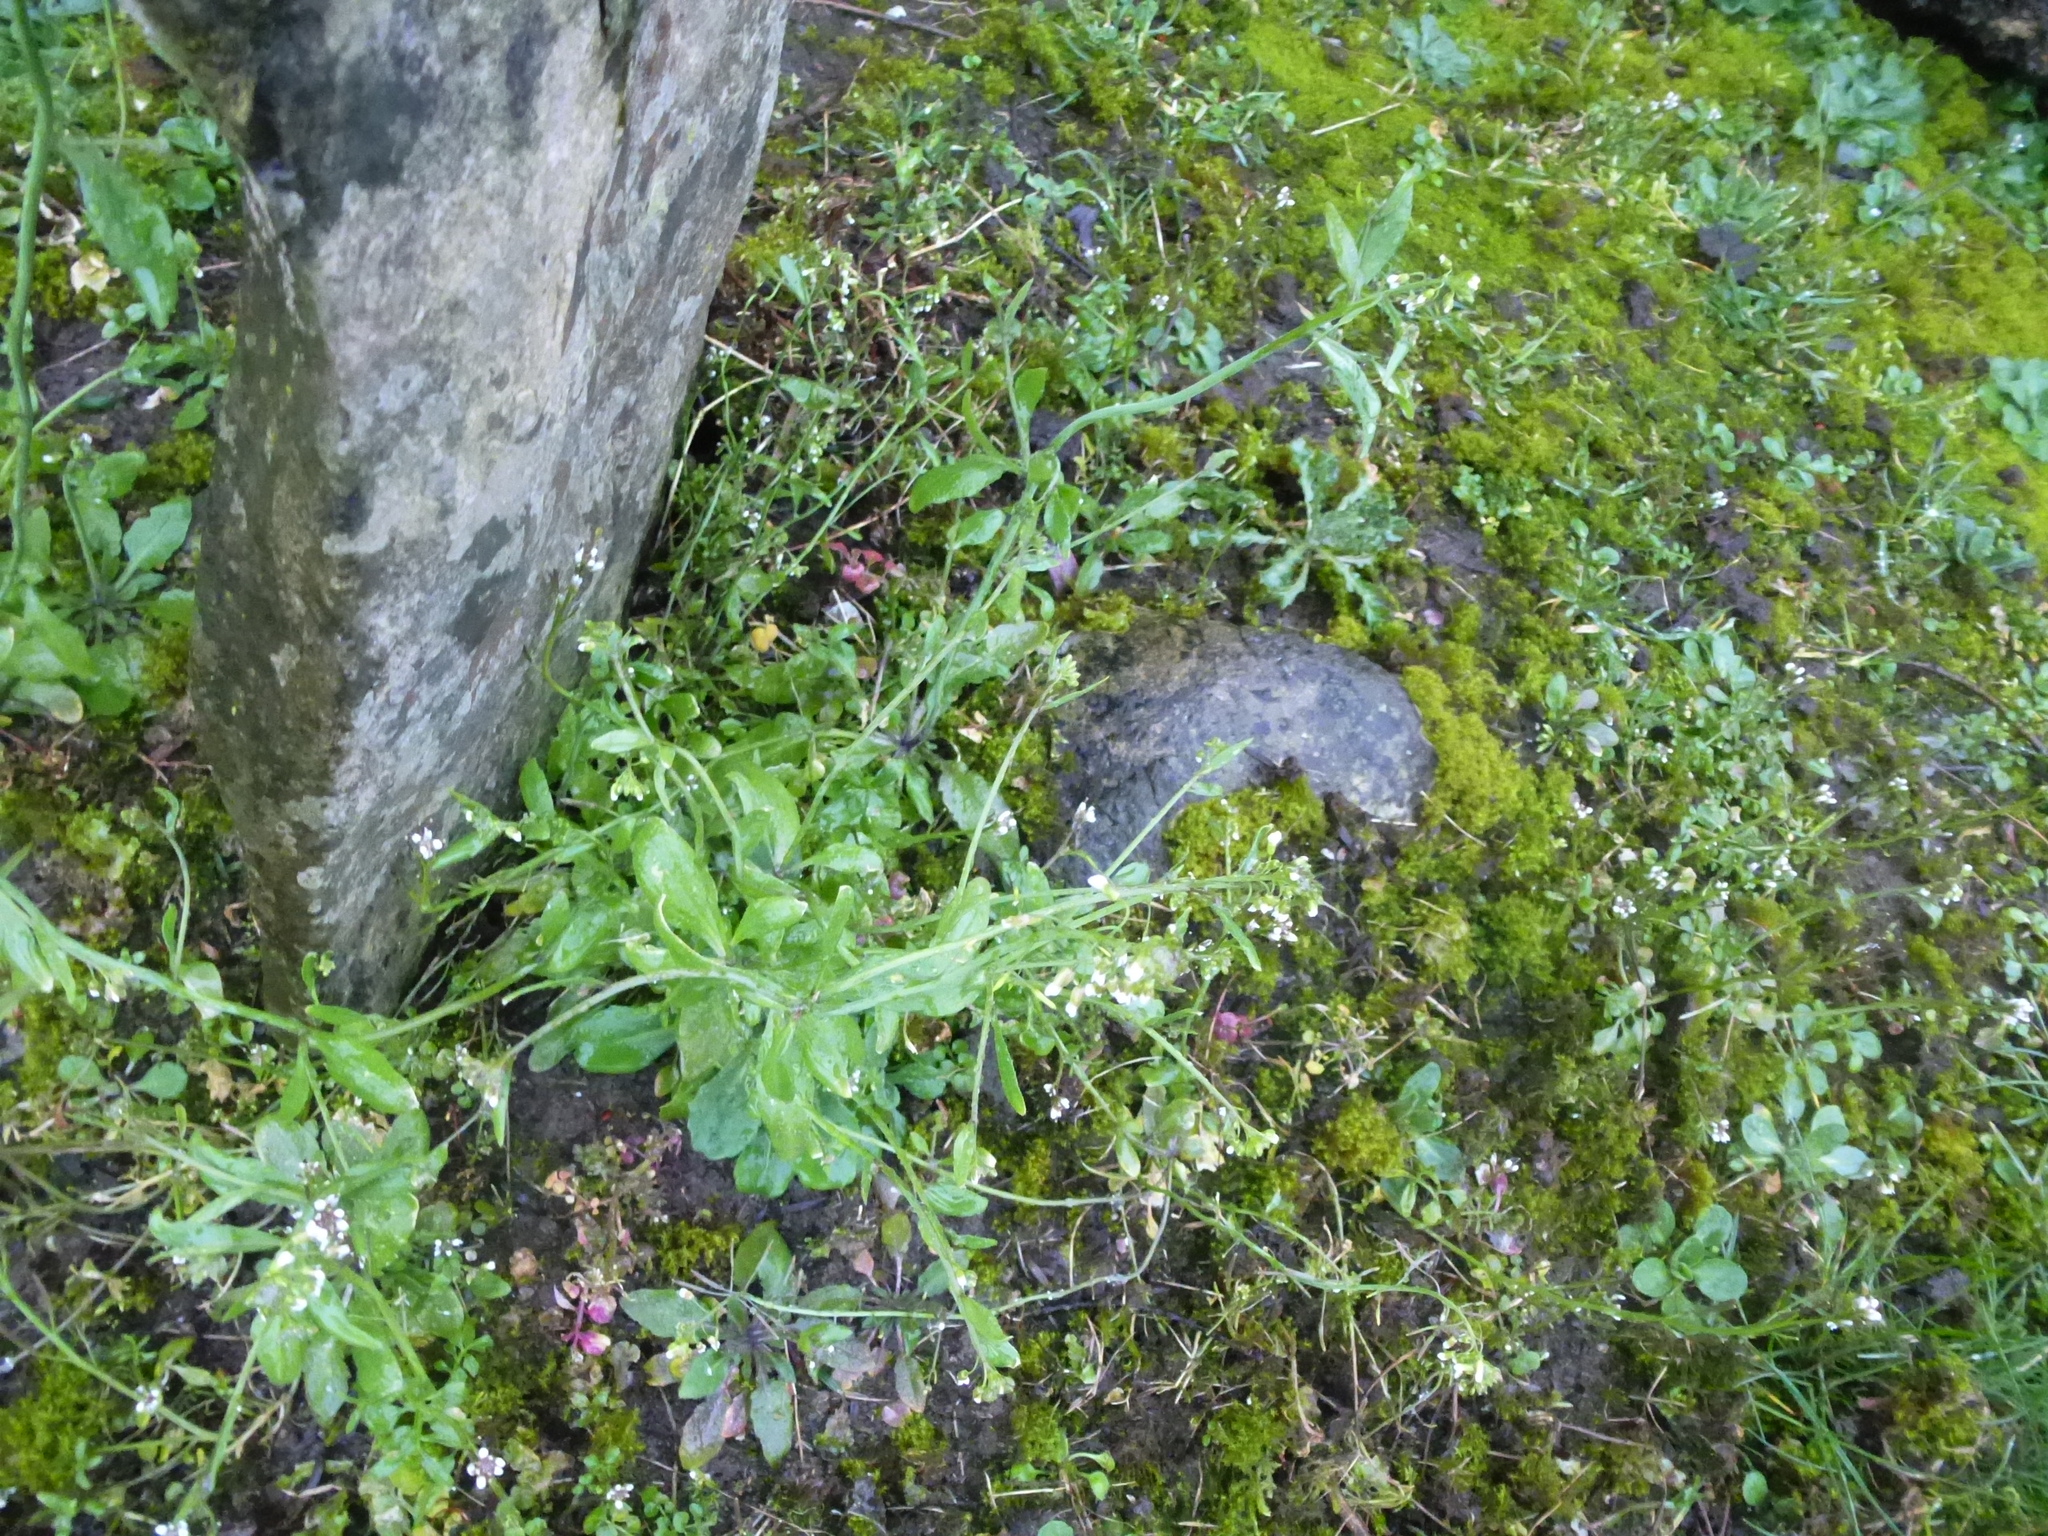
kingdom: Plantae
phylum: Tracheophyta
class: Magnoliopsida
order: Brassicales
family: Brassicaceae
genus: Arabidopsis
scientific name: Arabidopsis thaliana
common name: Thale cress
